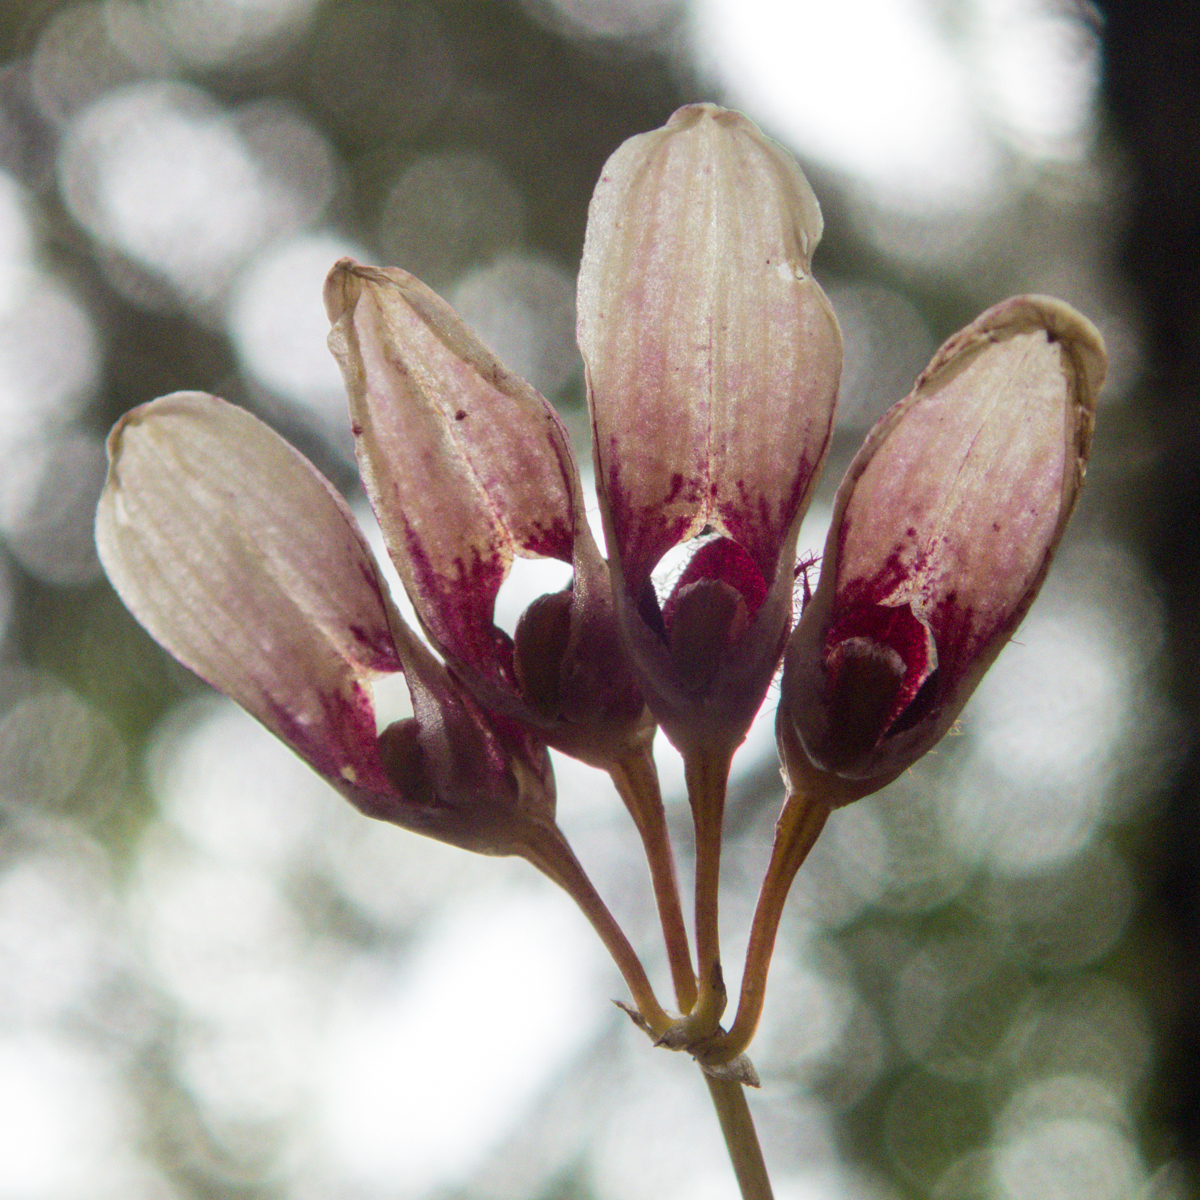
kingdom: Plantae
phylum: Tracheophyta
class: Liliopsida
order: Asparagales
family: Orchidaceae
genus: Bulbophyllum
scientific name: Bulbophyllum lepidum
